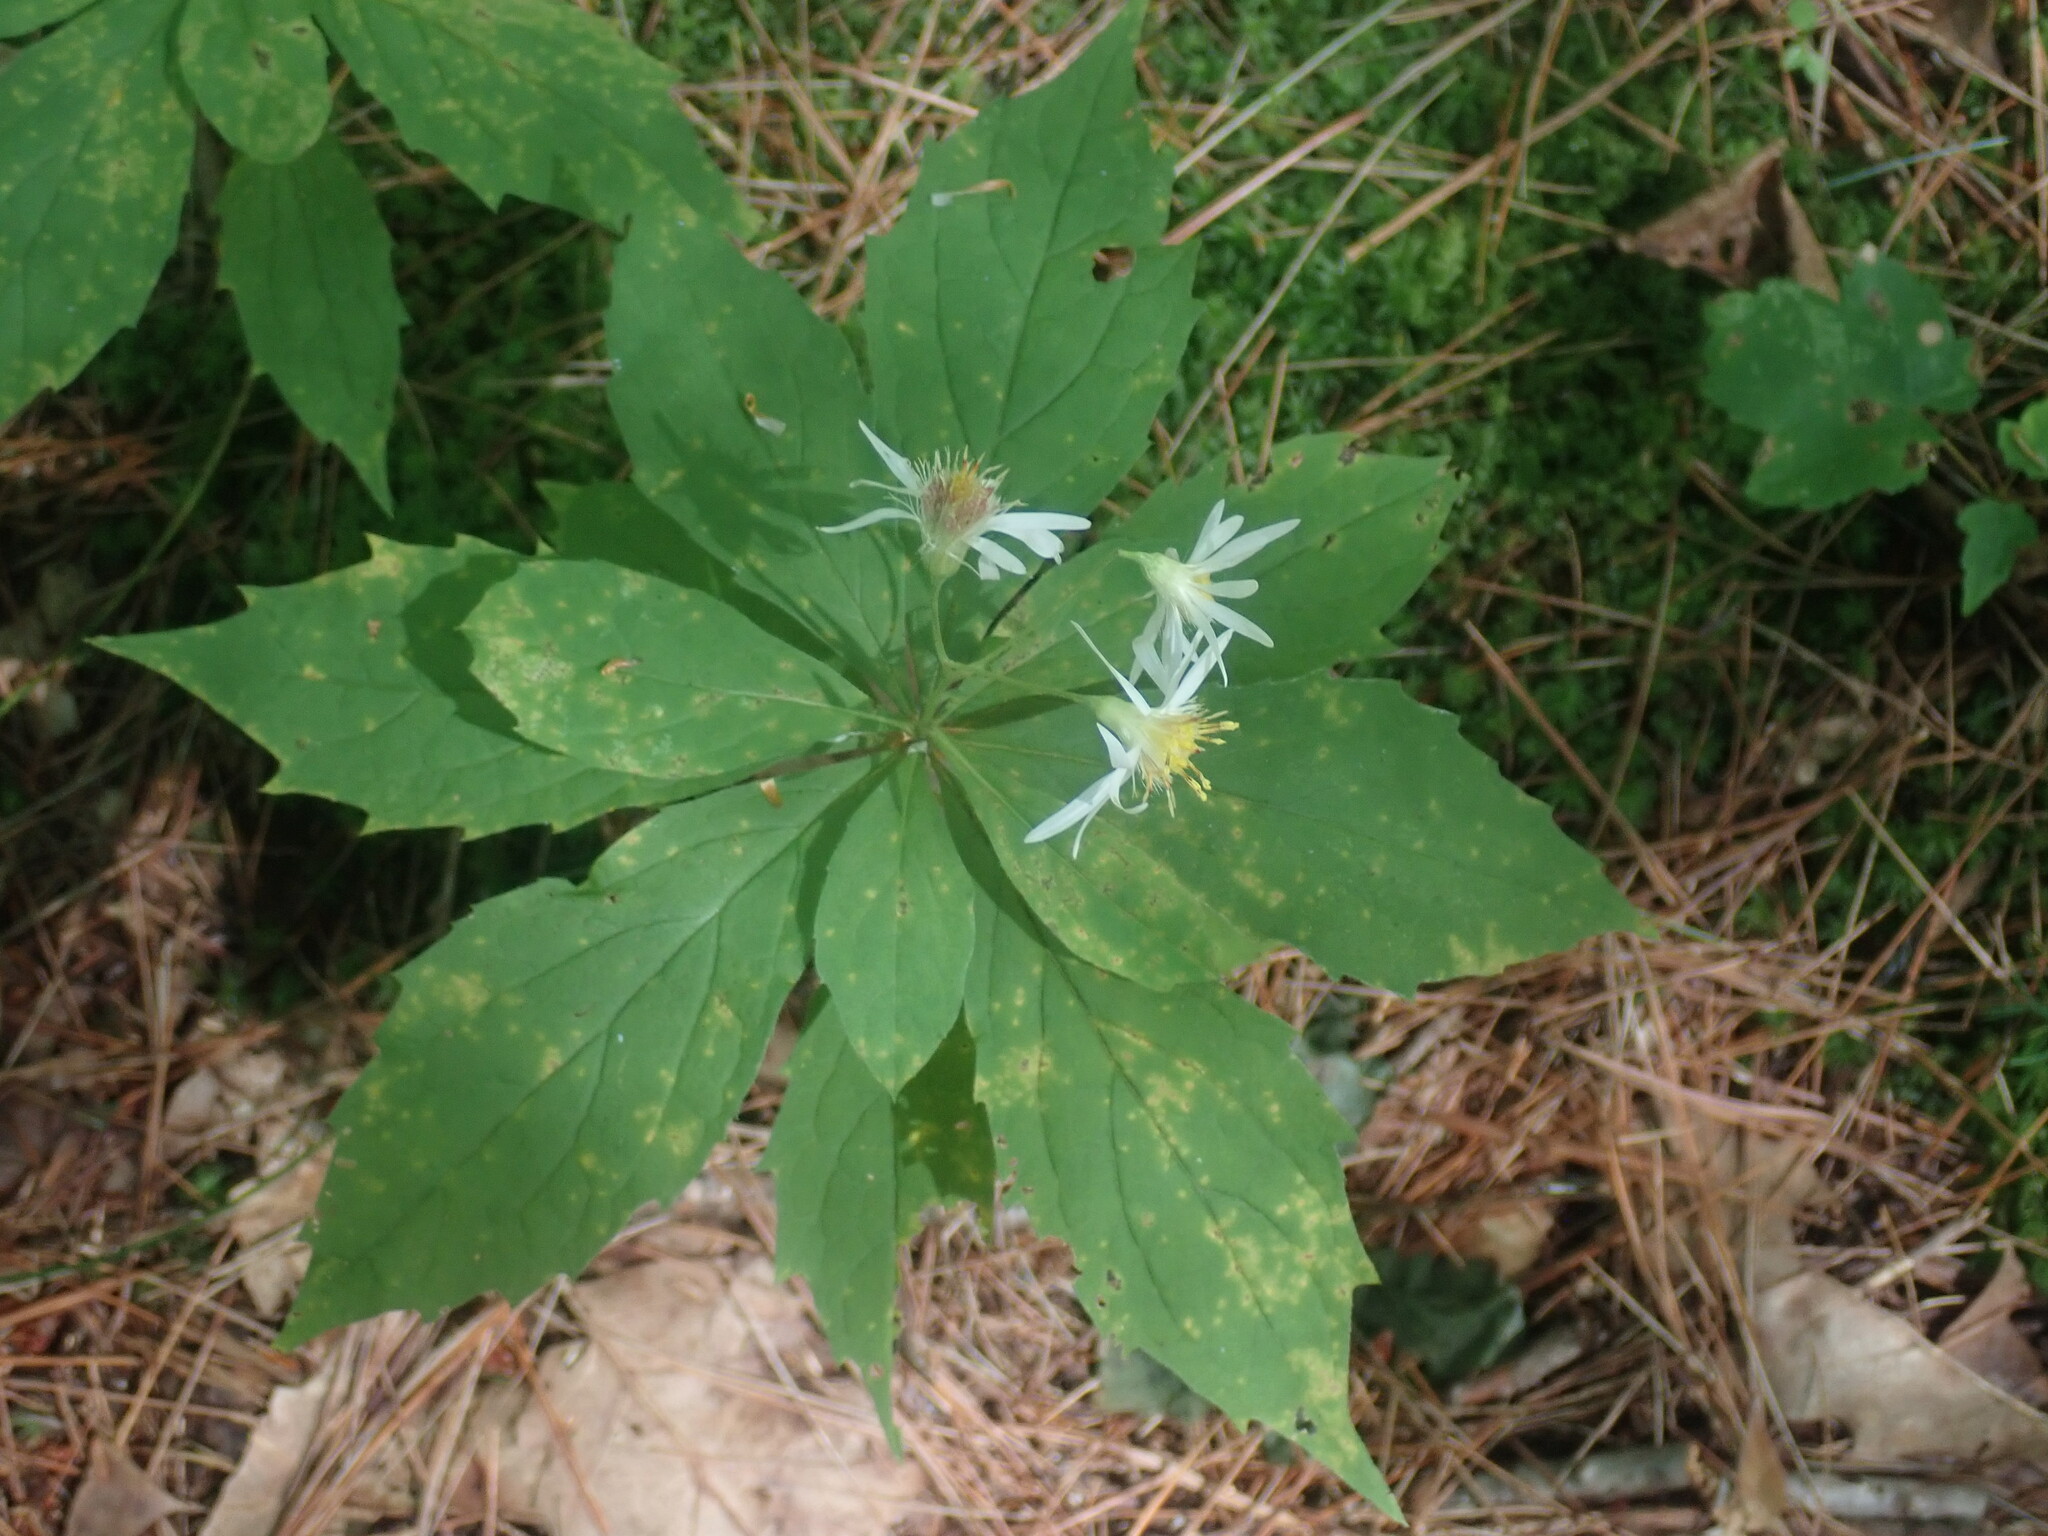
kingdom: Plantae
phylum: Tracheophyta
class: Magnoliopsida
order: Asterales
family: Asteraceae
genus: Oclemena
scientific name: Oclemena acuminata
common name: Mountain aster
